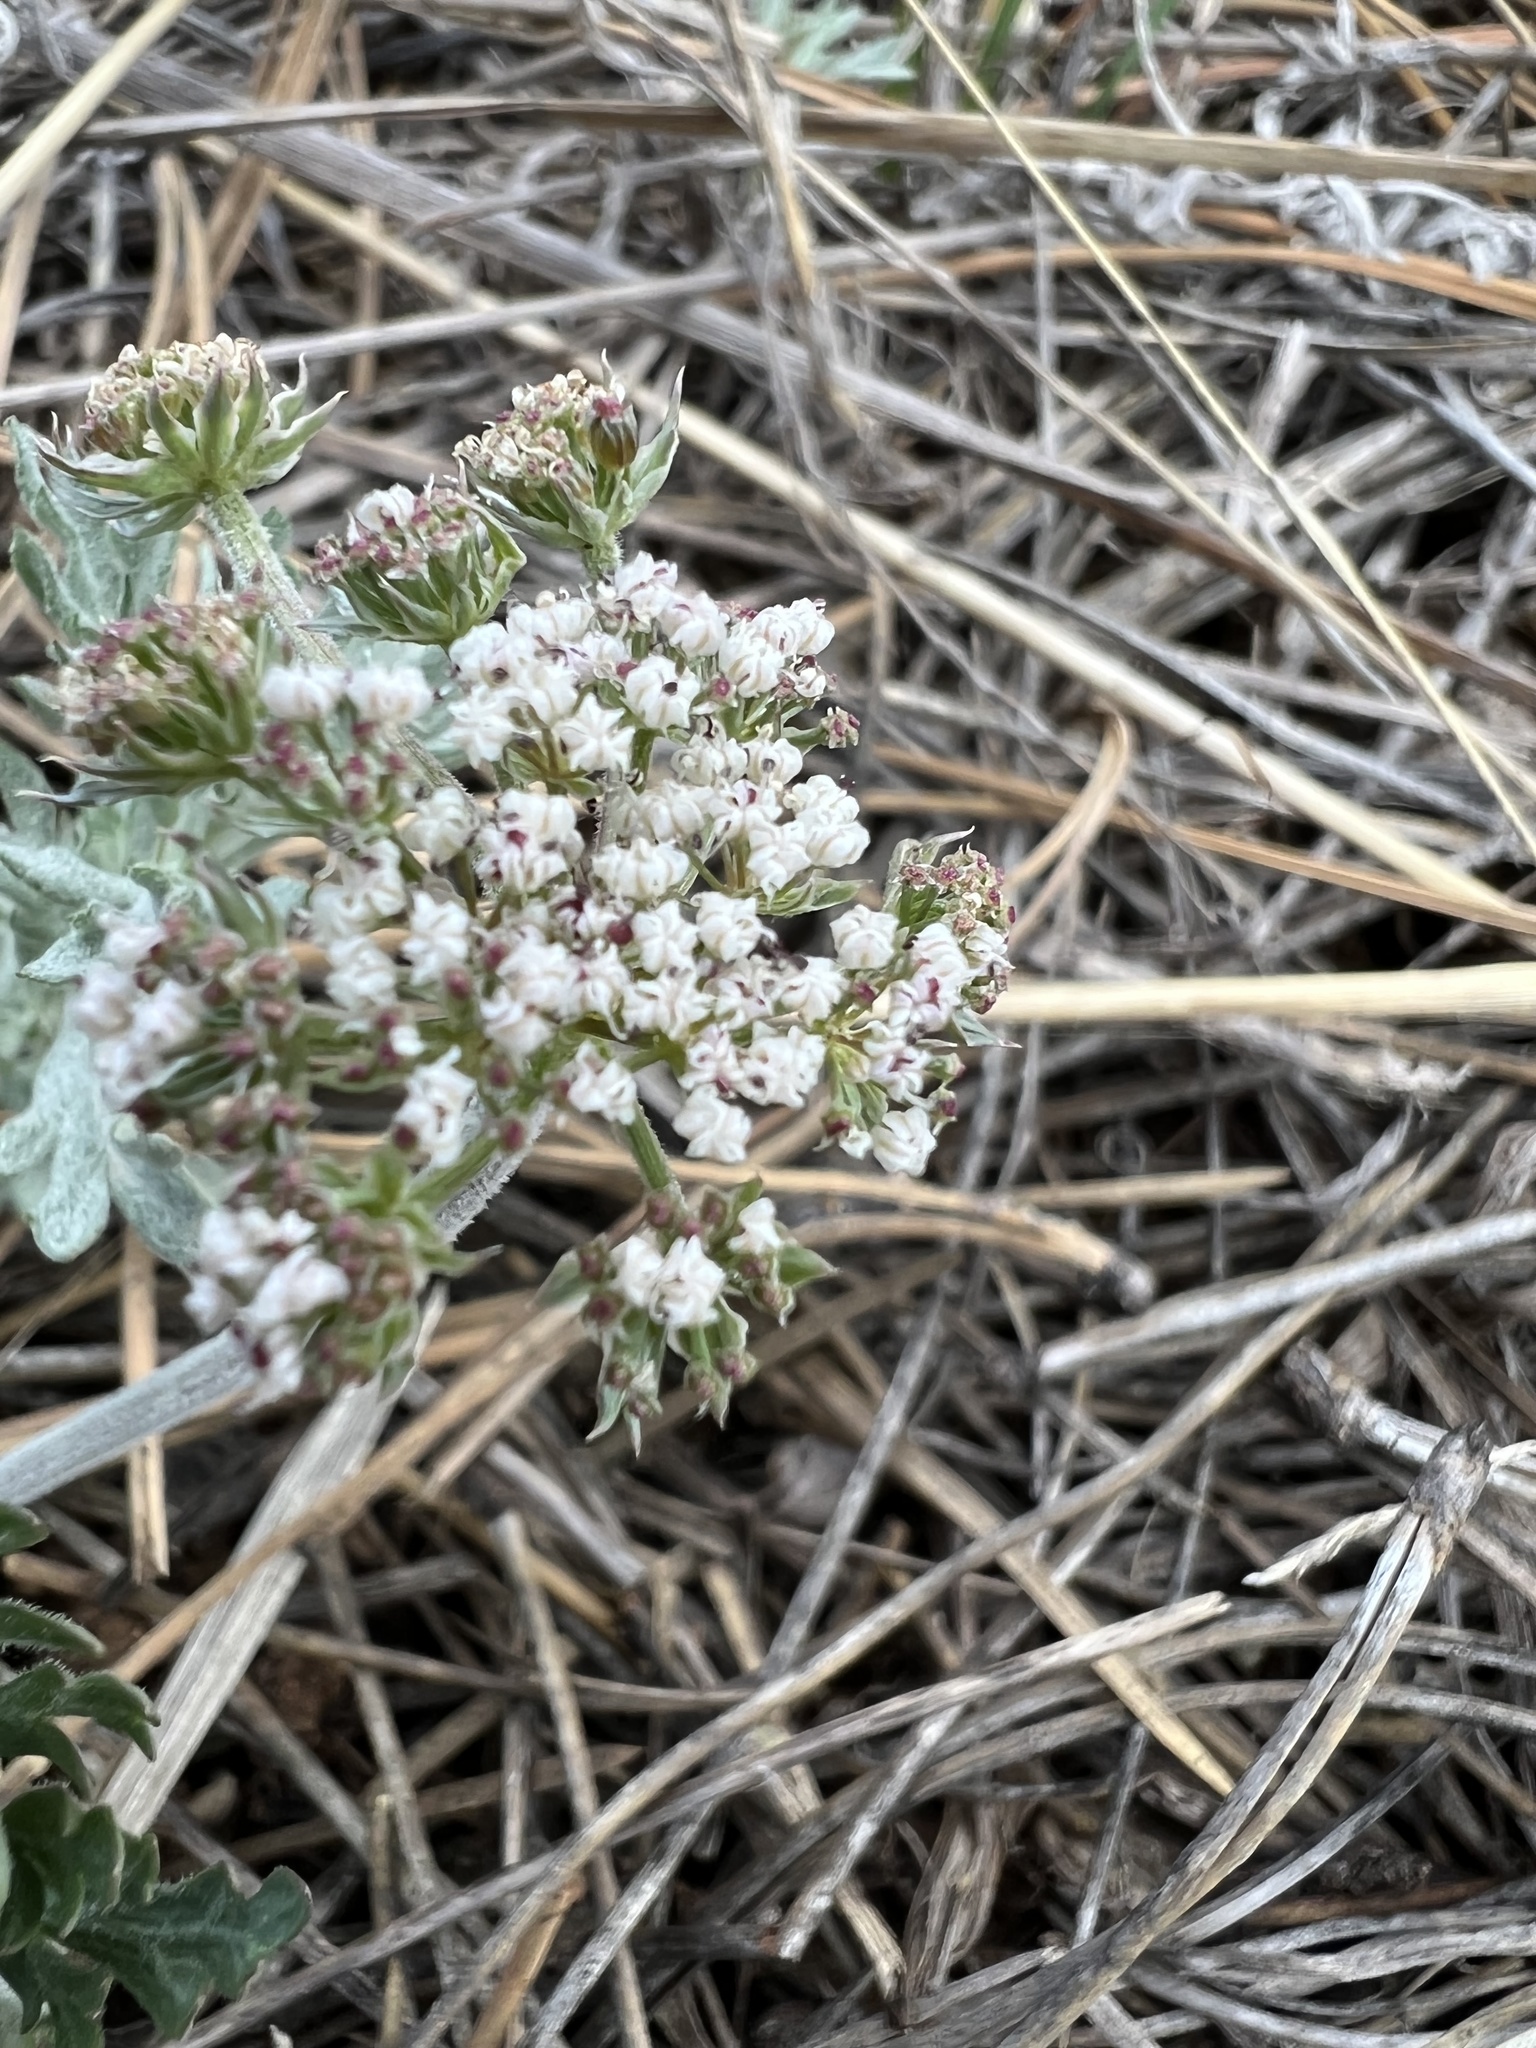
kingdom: Plantae
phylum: Tracheophyta
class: Magnoliopsida
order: Apiales
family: Apiaceae
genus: Lomatium
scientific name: Lomatium orientale
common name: Eastern cous
